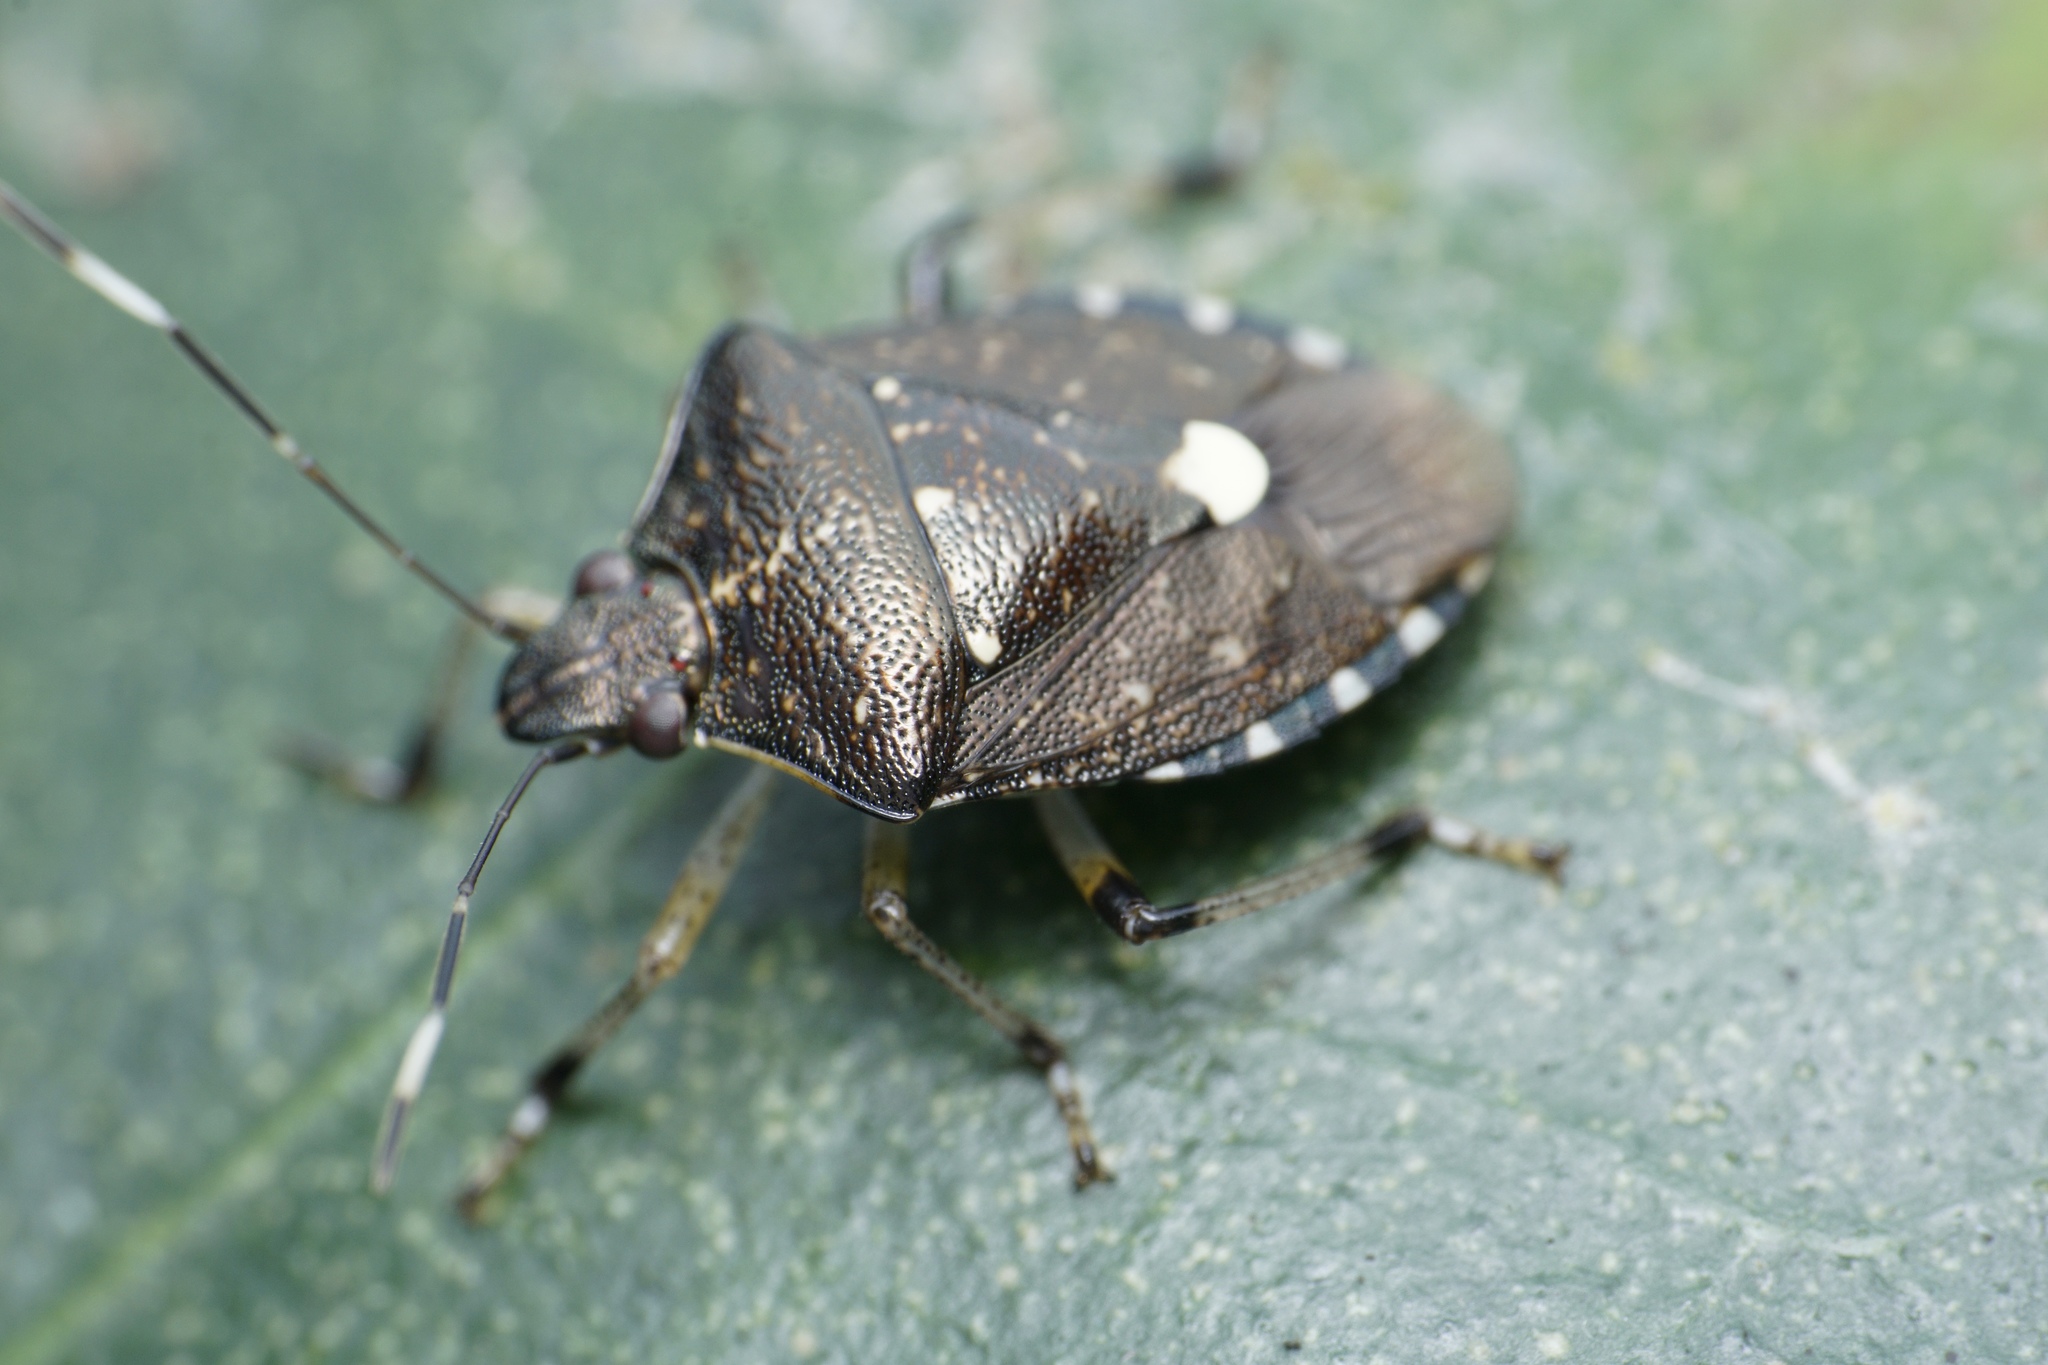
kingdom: Animalia
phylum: Arthropoda
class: Insecta
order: Hemiptera
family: Pentatomidae
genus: Tolumnia
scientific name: Tolumnia latipes
